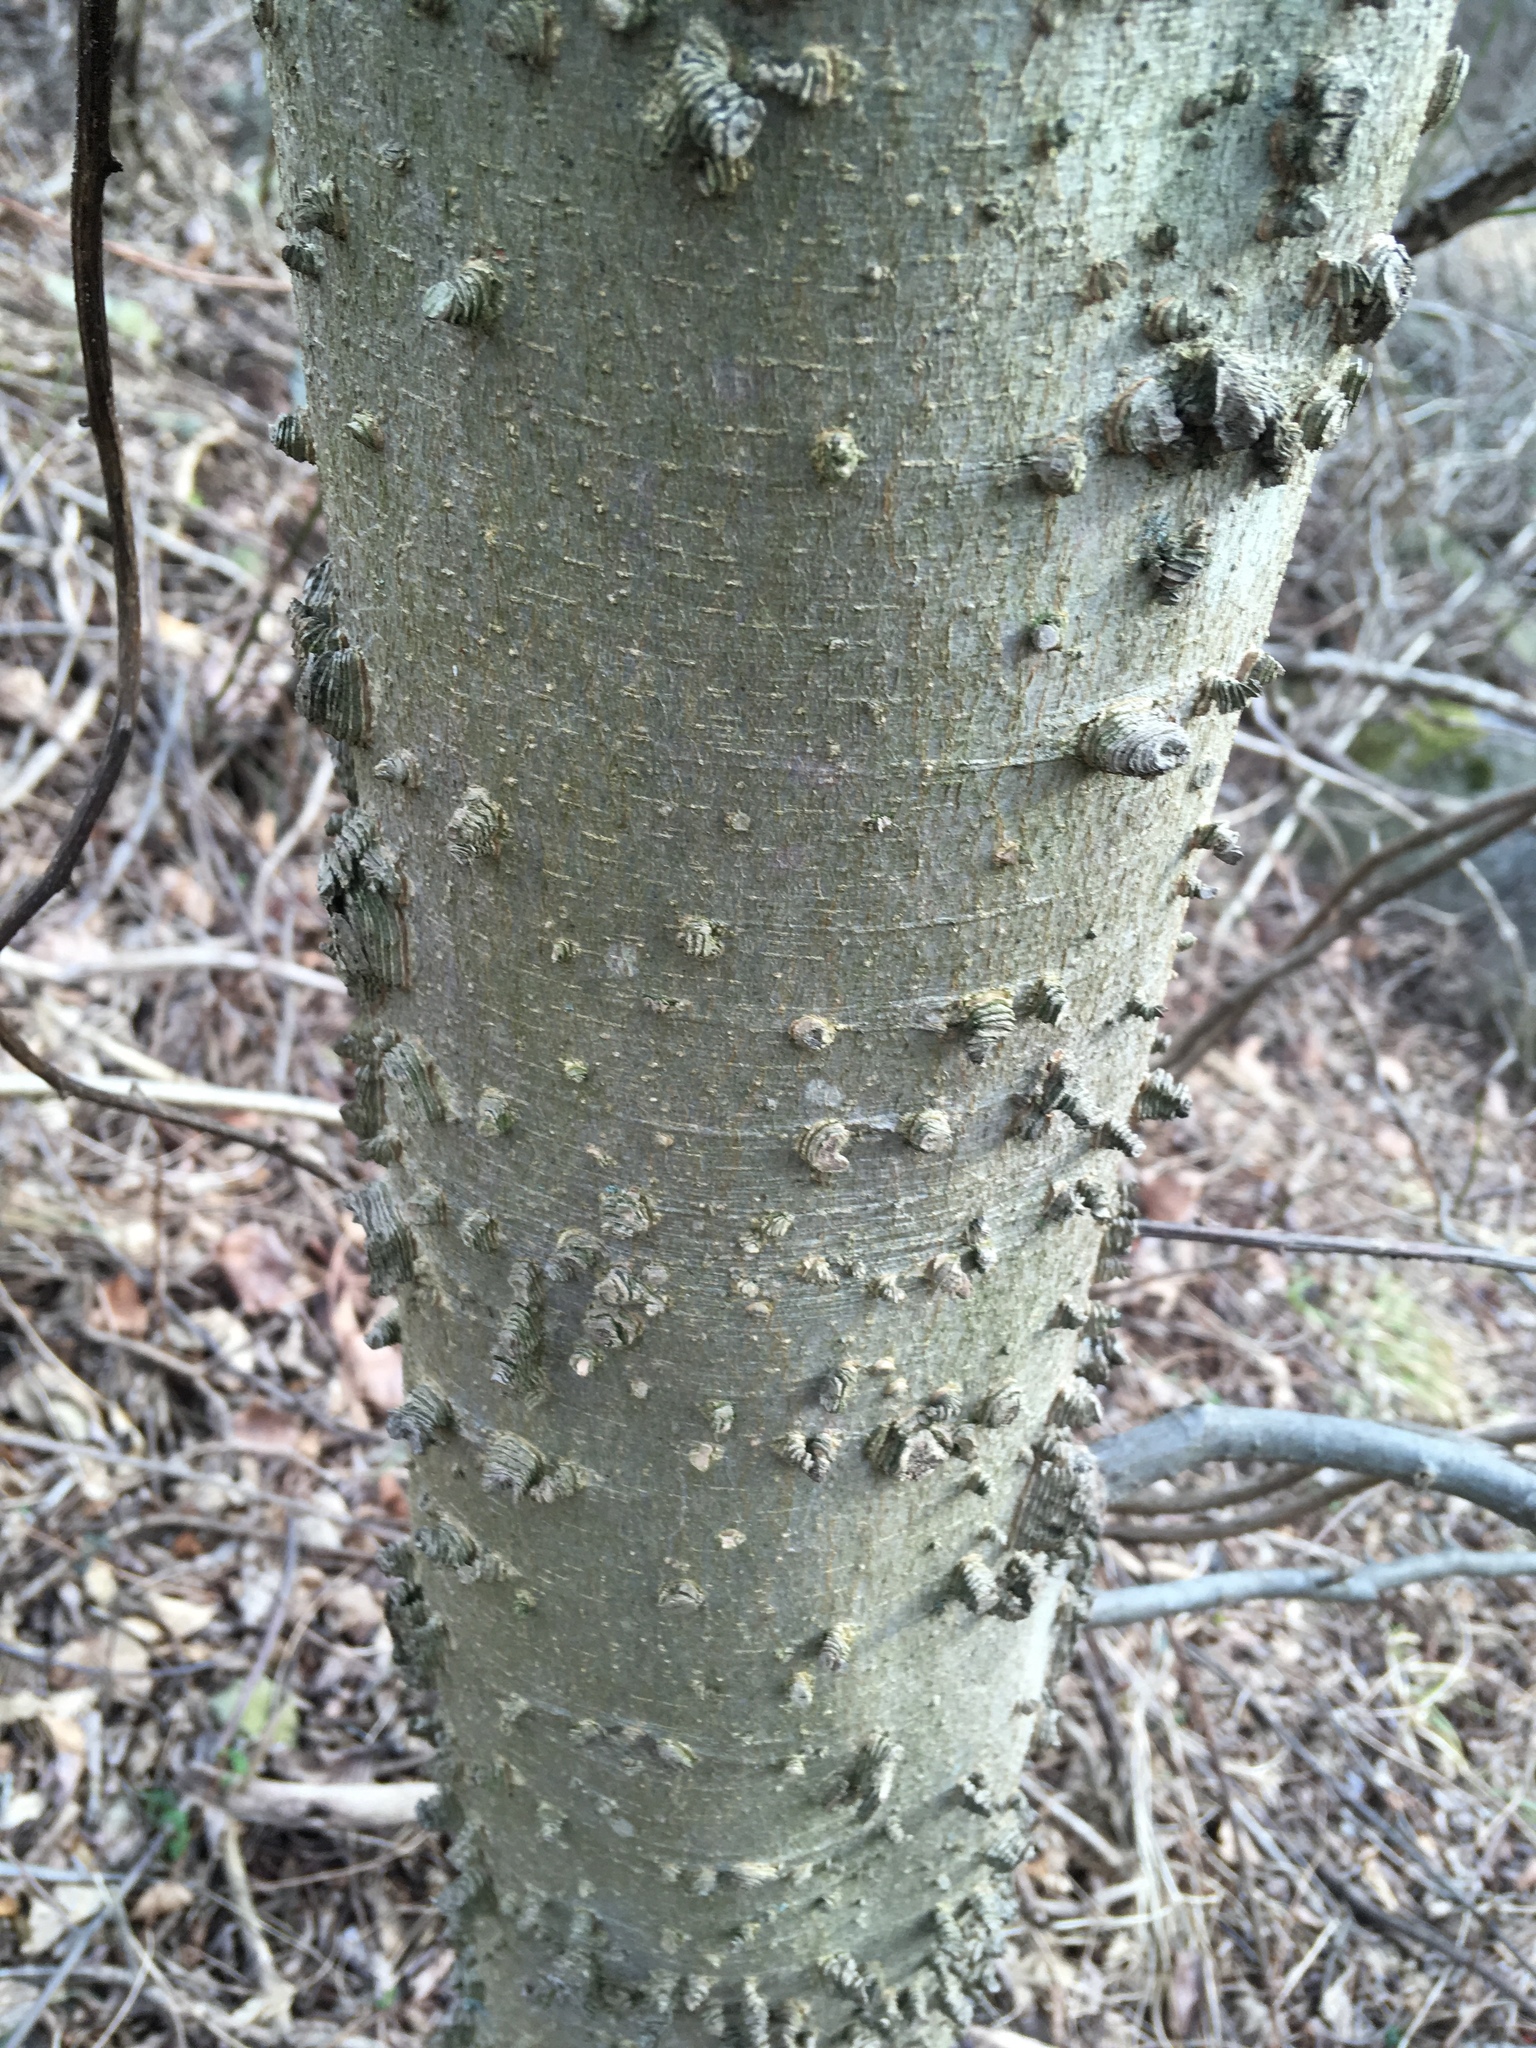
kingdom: Plantae
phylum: Tracheophyta
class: Magnoliopsida
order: Rosales
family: Cannabaceae
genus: Celtis
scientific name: Celtis occidentalis
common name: Common hackberry
